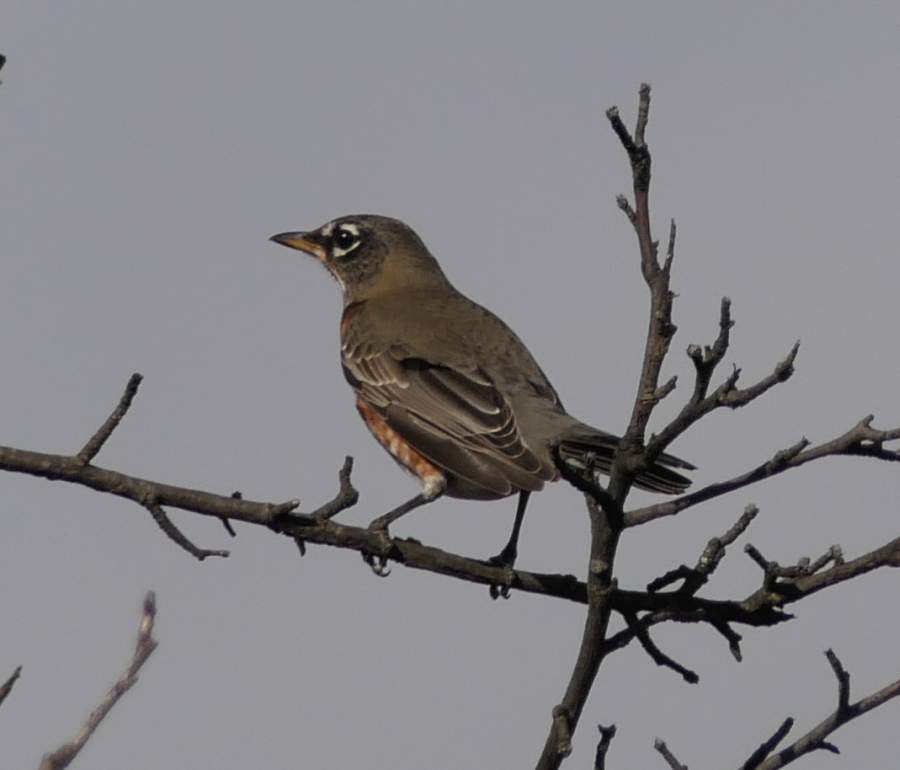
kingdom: Animalia
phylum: Chordata
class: Aves
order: Passeriformes
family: Turdidae
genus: Turdus
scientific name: Turdus migratorius
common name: American robin
